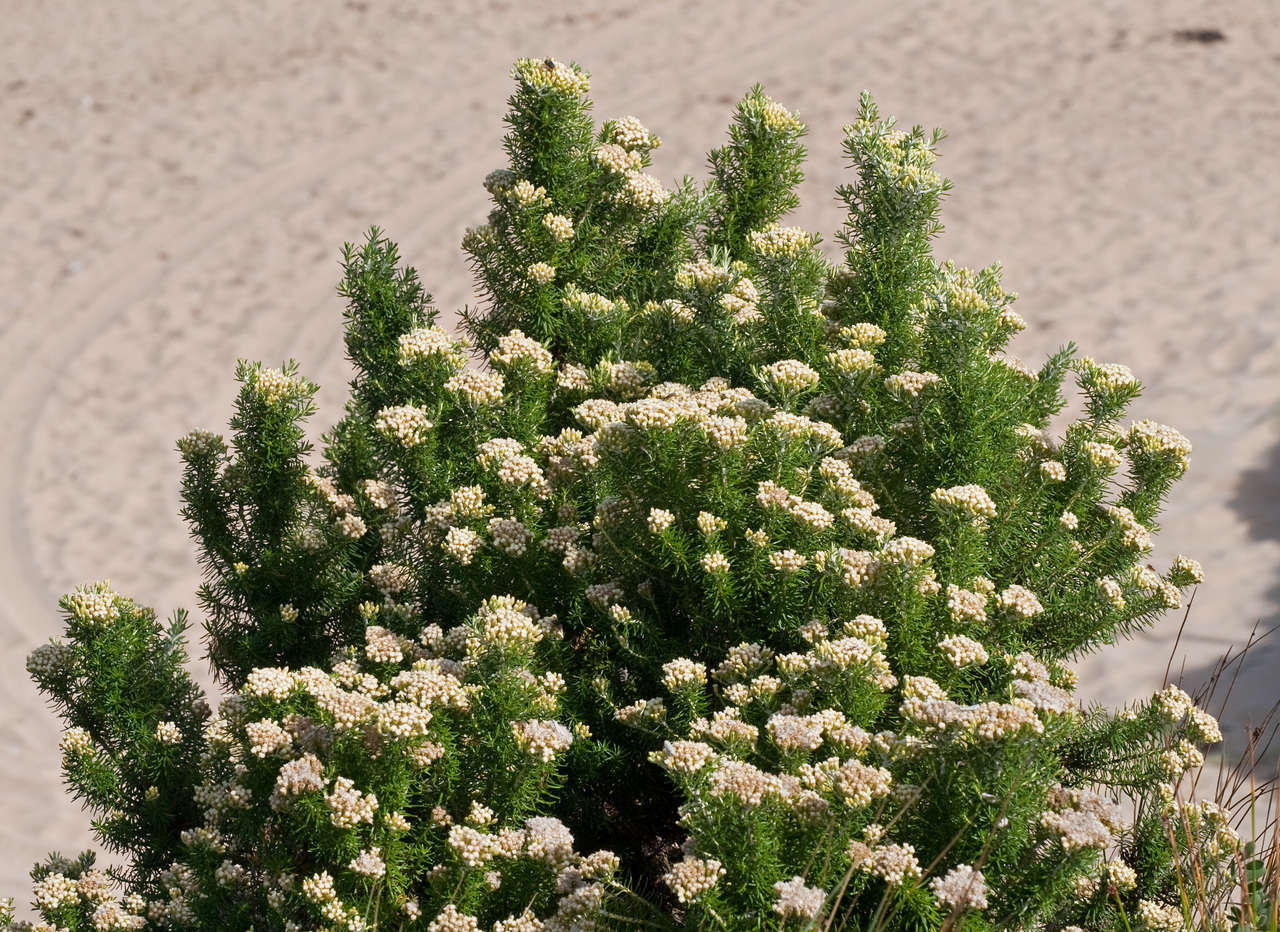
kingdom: Plantae
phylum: Tracheophyta
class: Magnoliopsida
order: Asterales
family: Asteraceae
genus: Ozothamnus
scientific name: Ozothamnus cinereus
